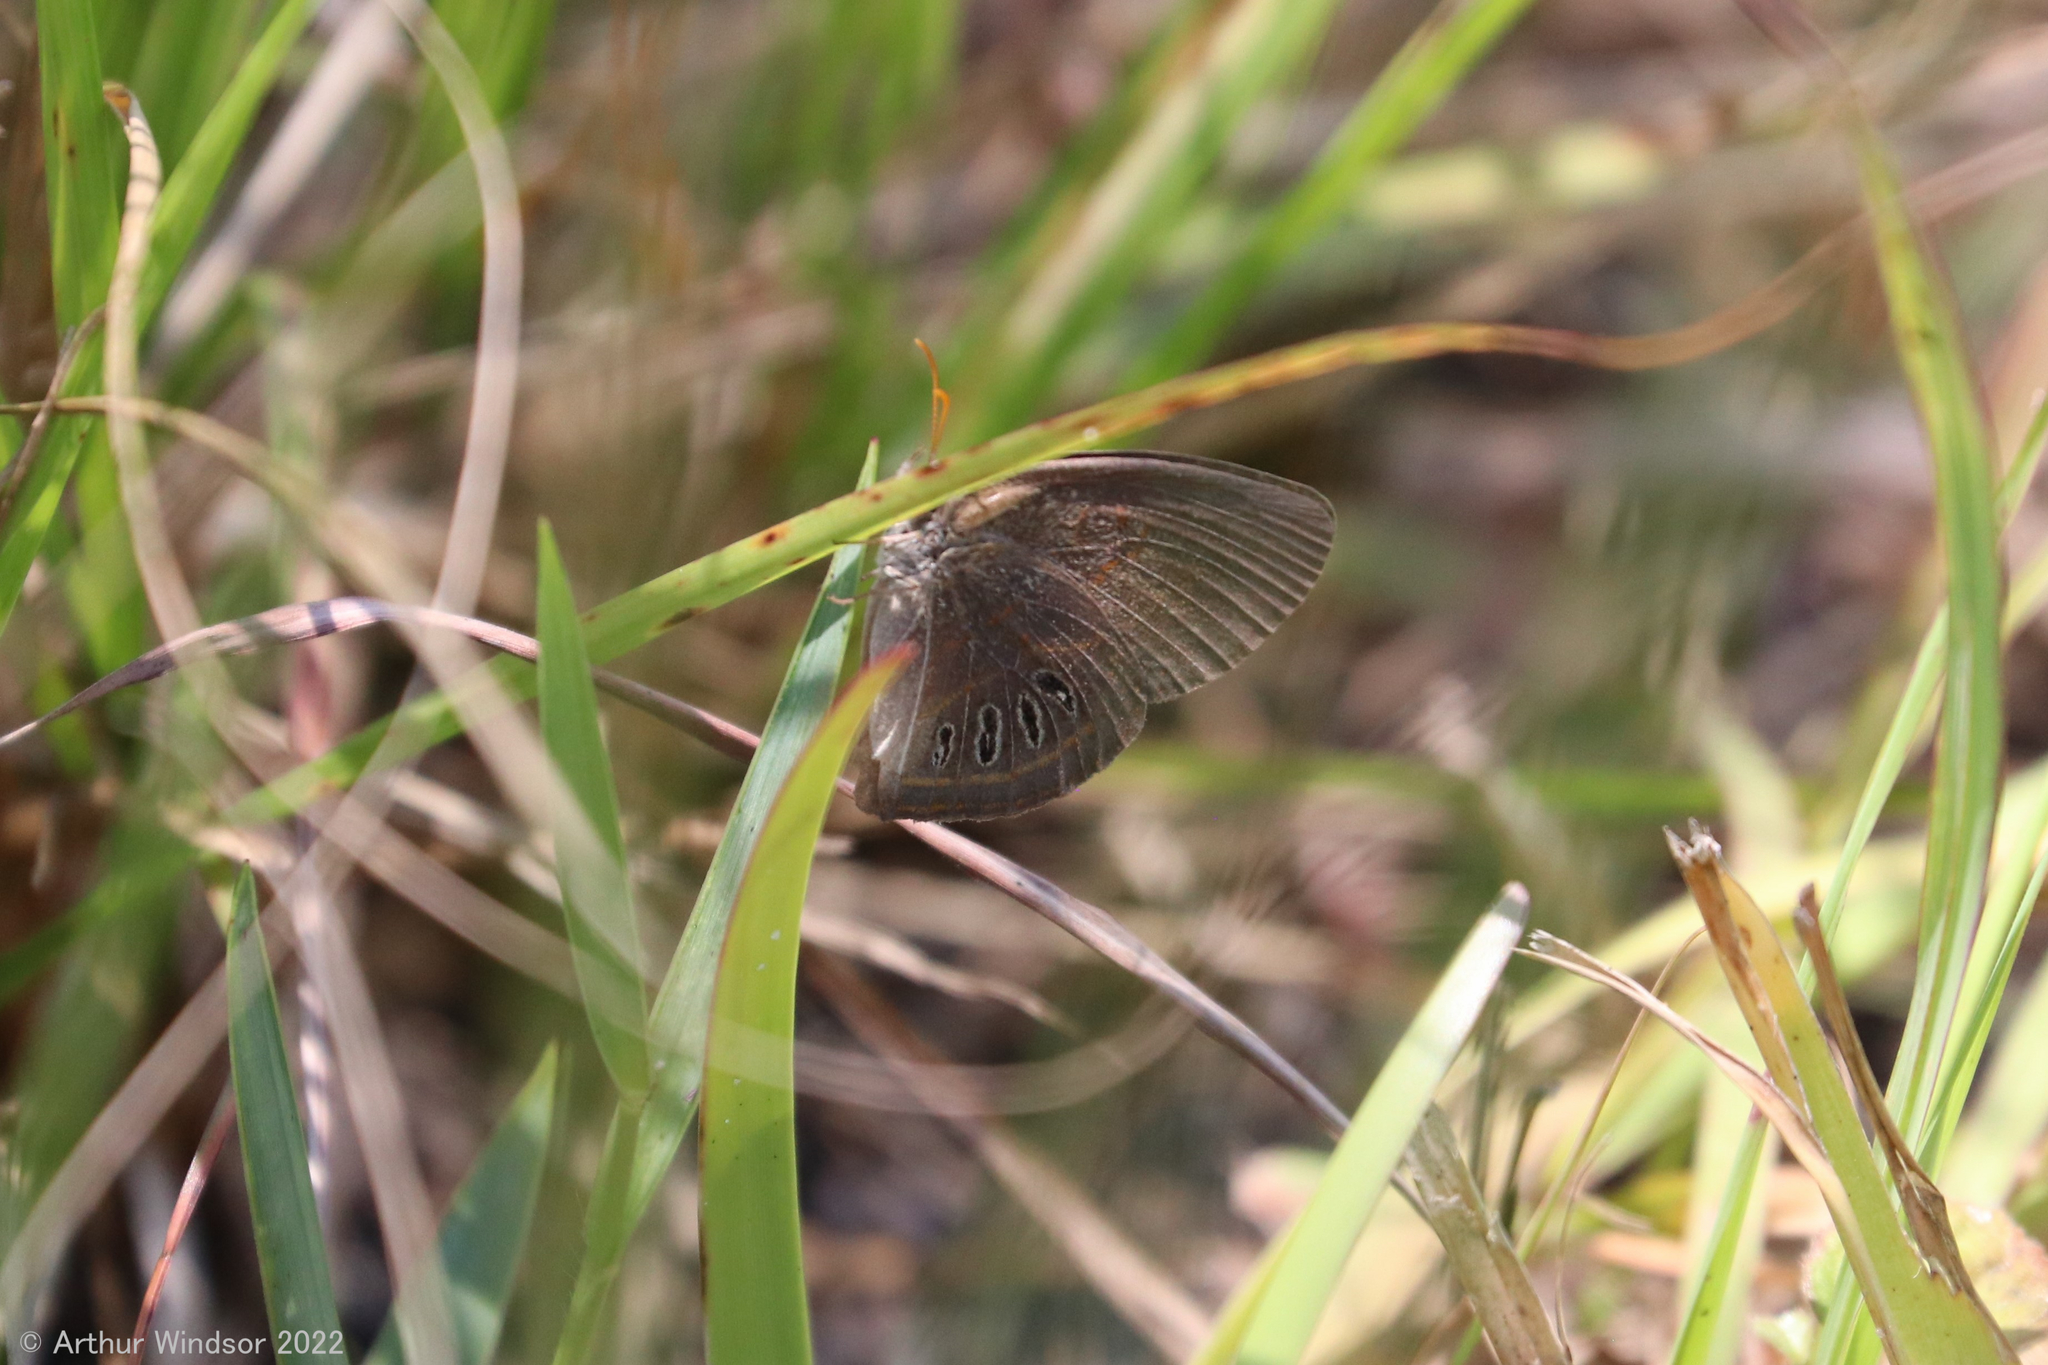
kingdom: Animalia
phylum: Arthropoda
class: Insecta
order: Lepidoptera
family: Nymphalidae
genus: Euptychia
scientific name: Euptychia phocion
